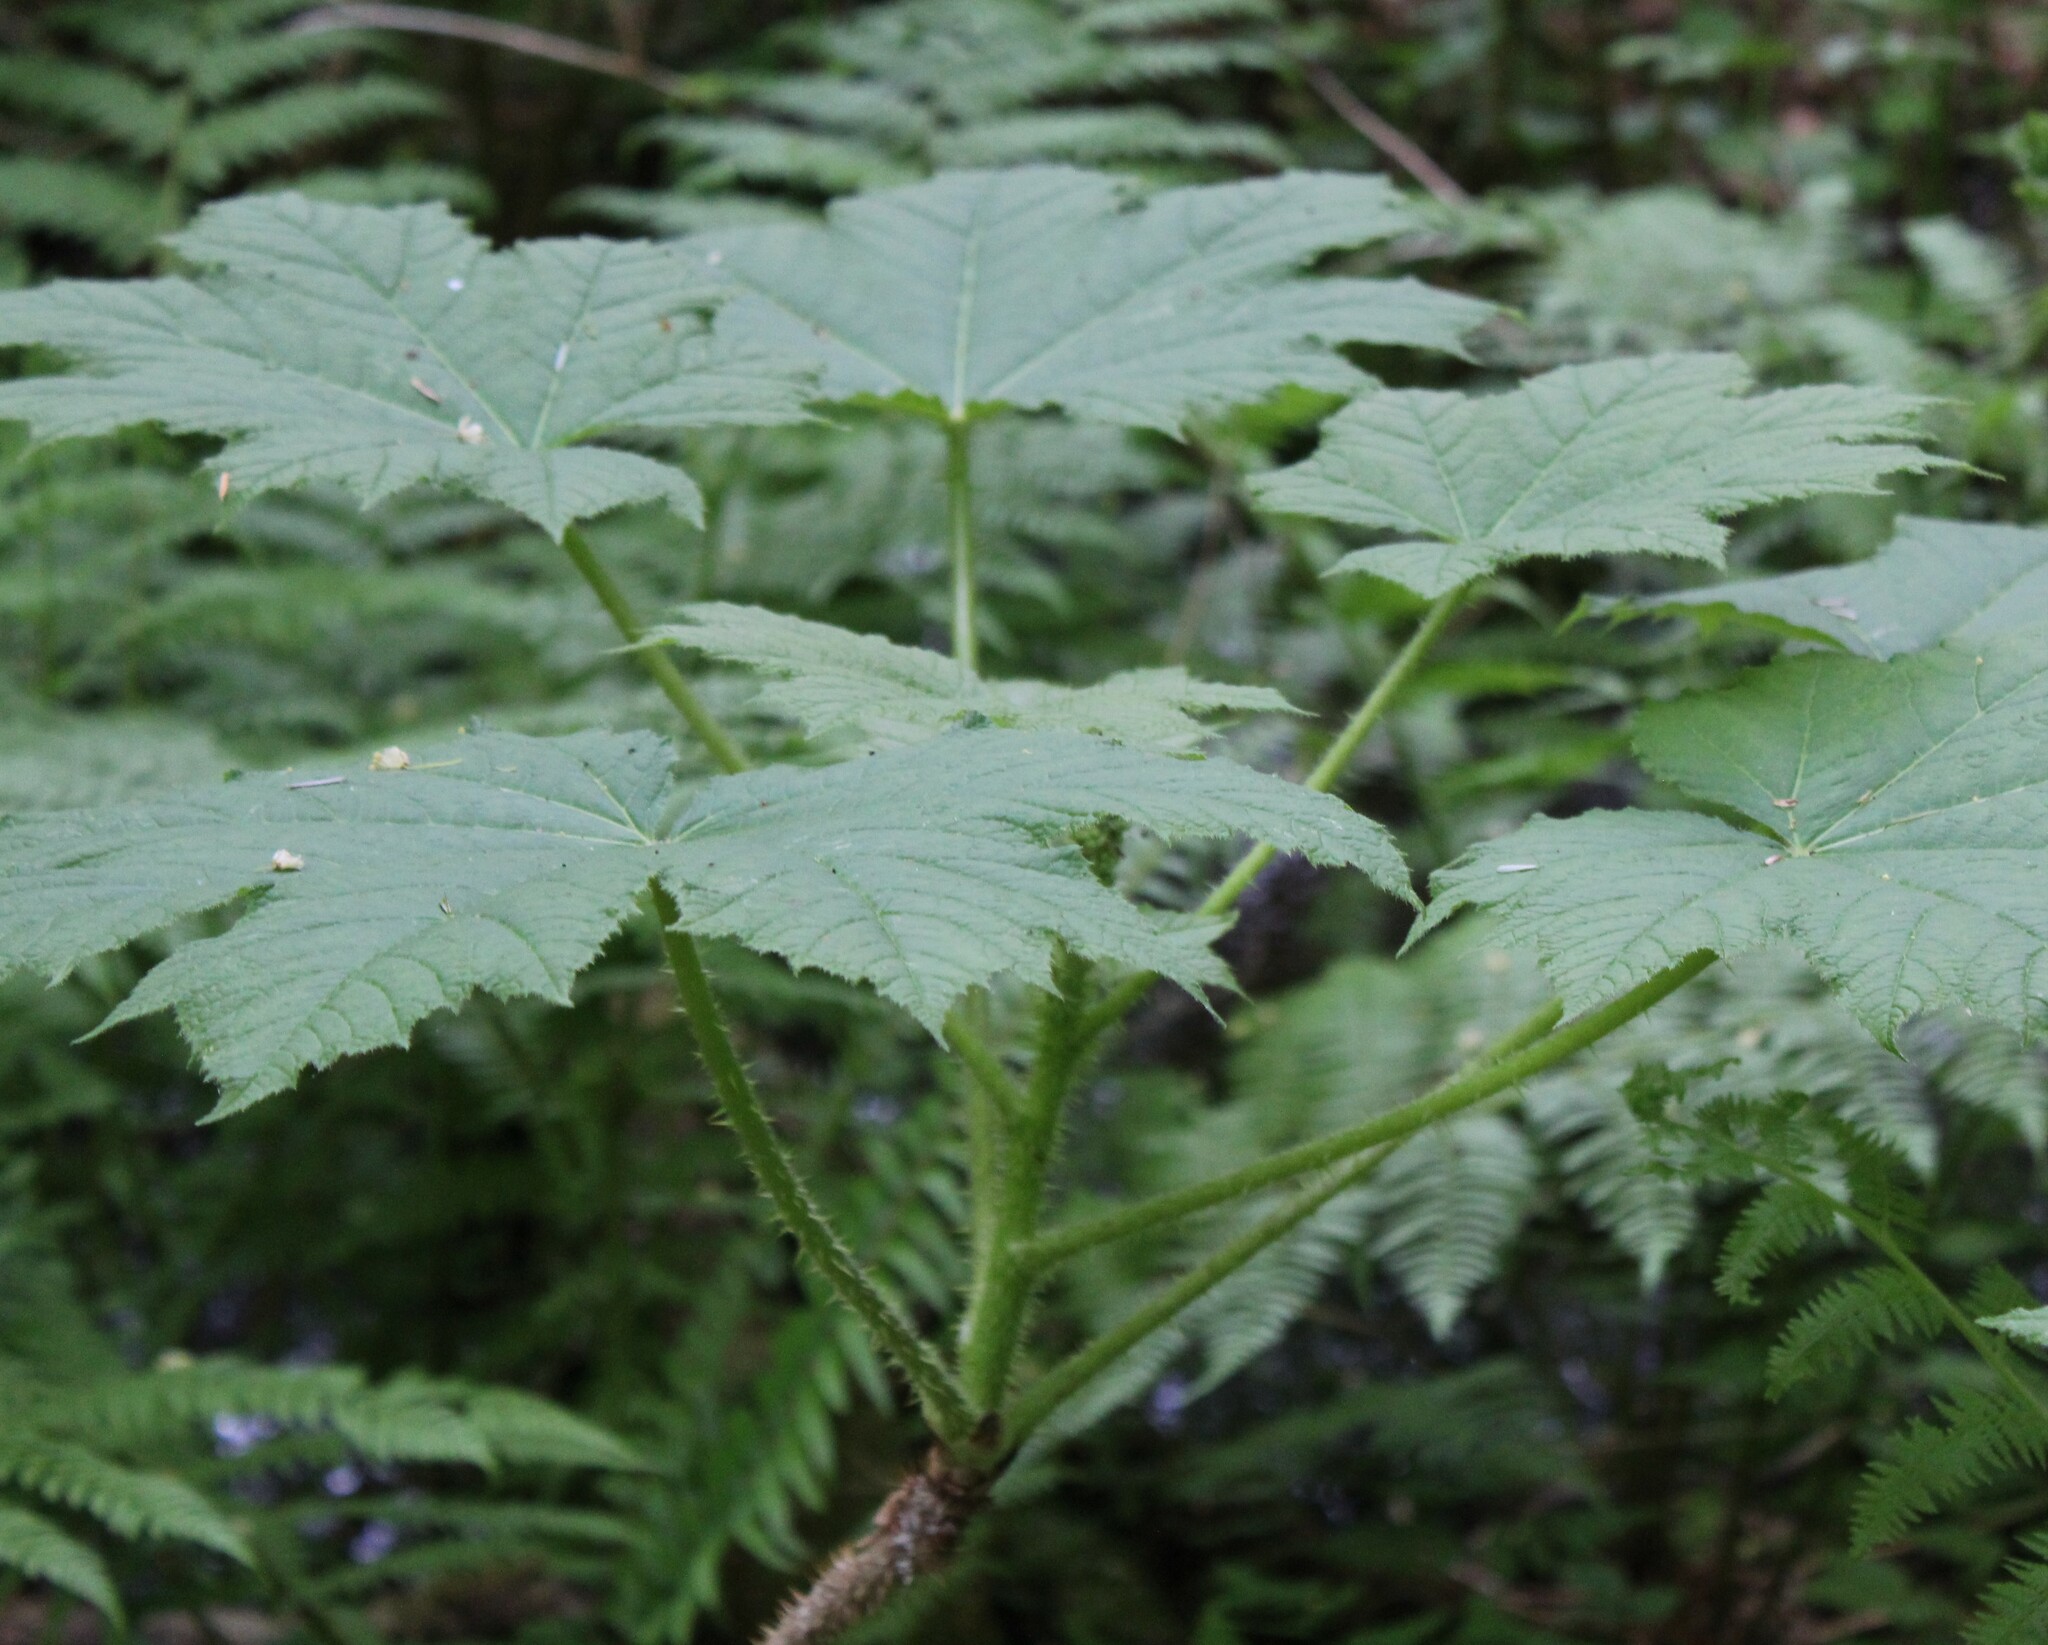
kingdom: Plantae
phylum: Tracheophyta
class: Magnoliopsida
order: Apiales
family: Araliaceae
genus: Oplopanax
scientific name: Oplopanax horridus
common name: Devil's walking-stick
